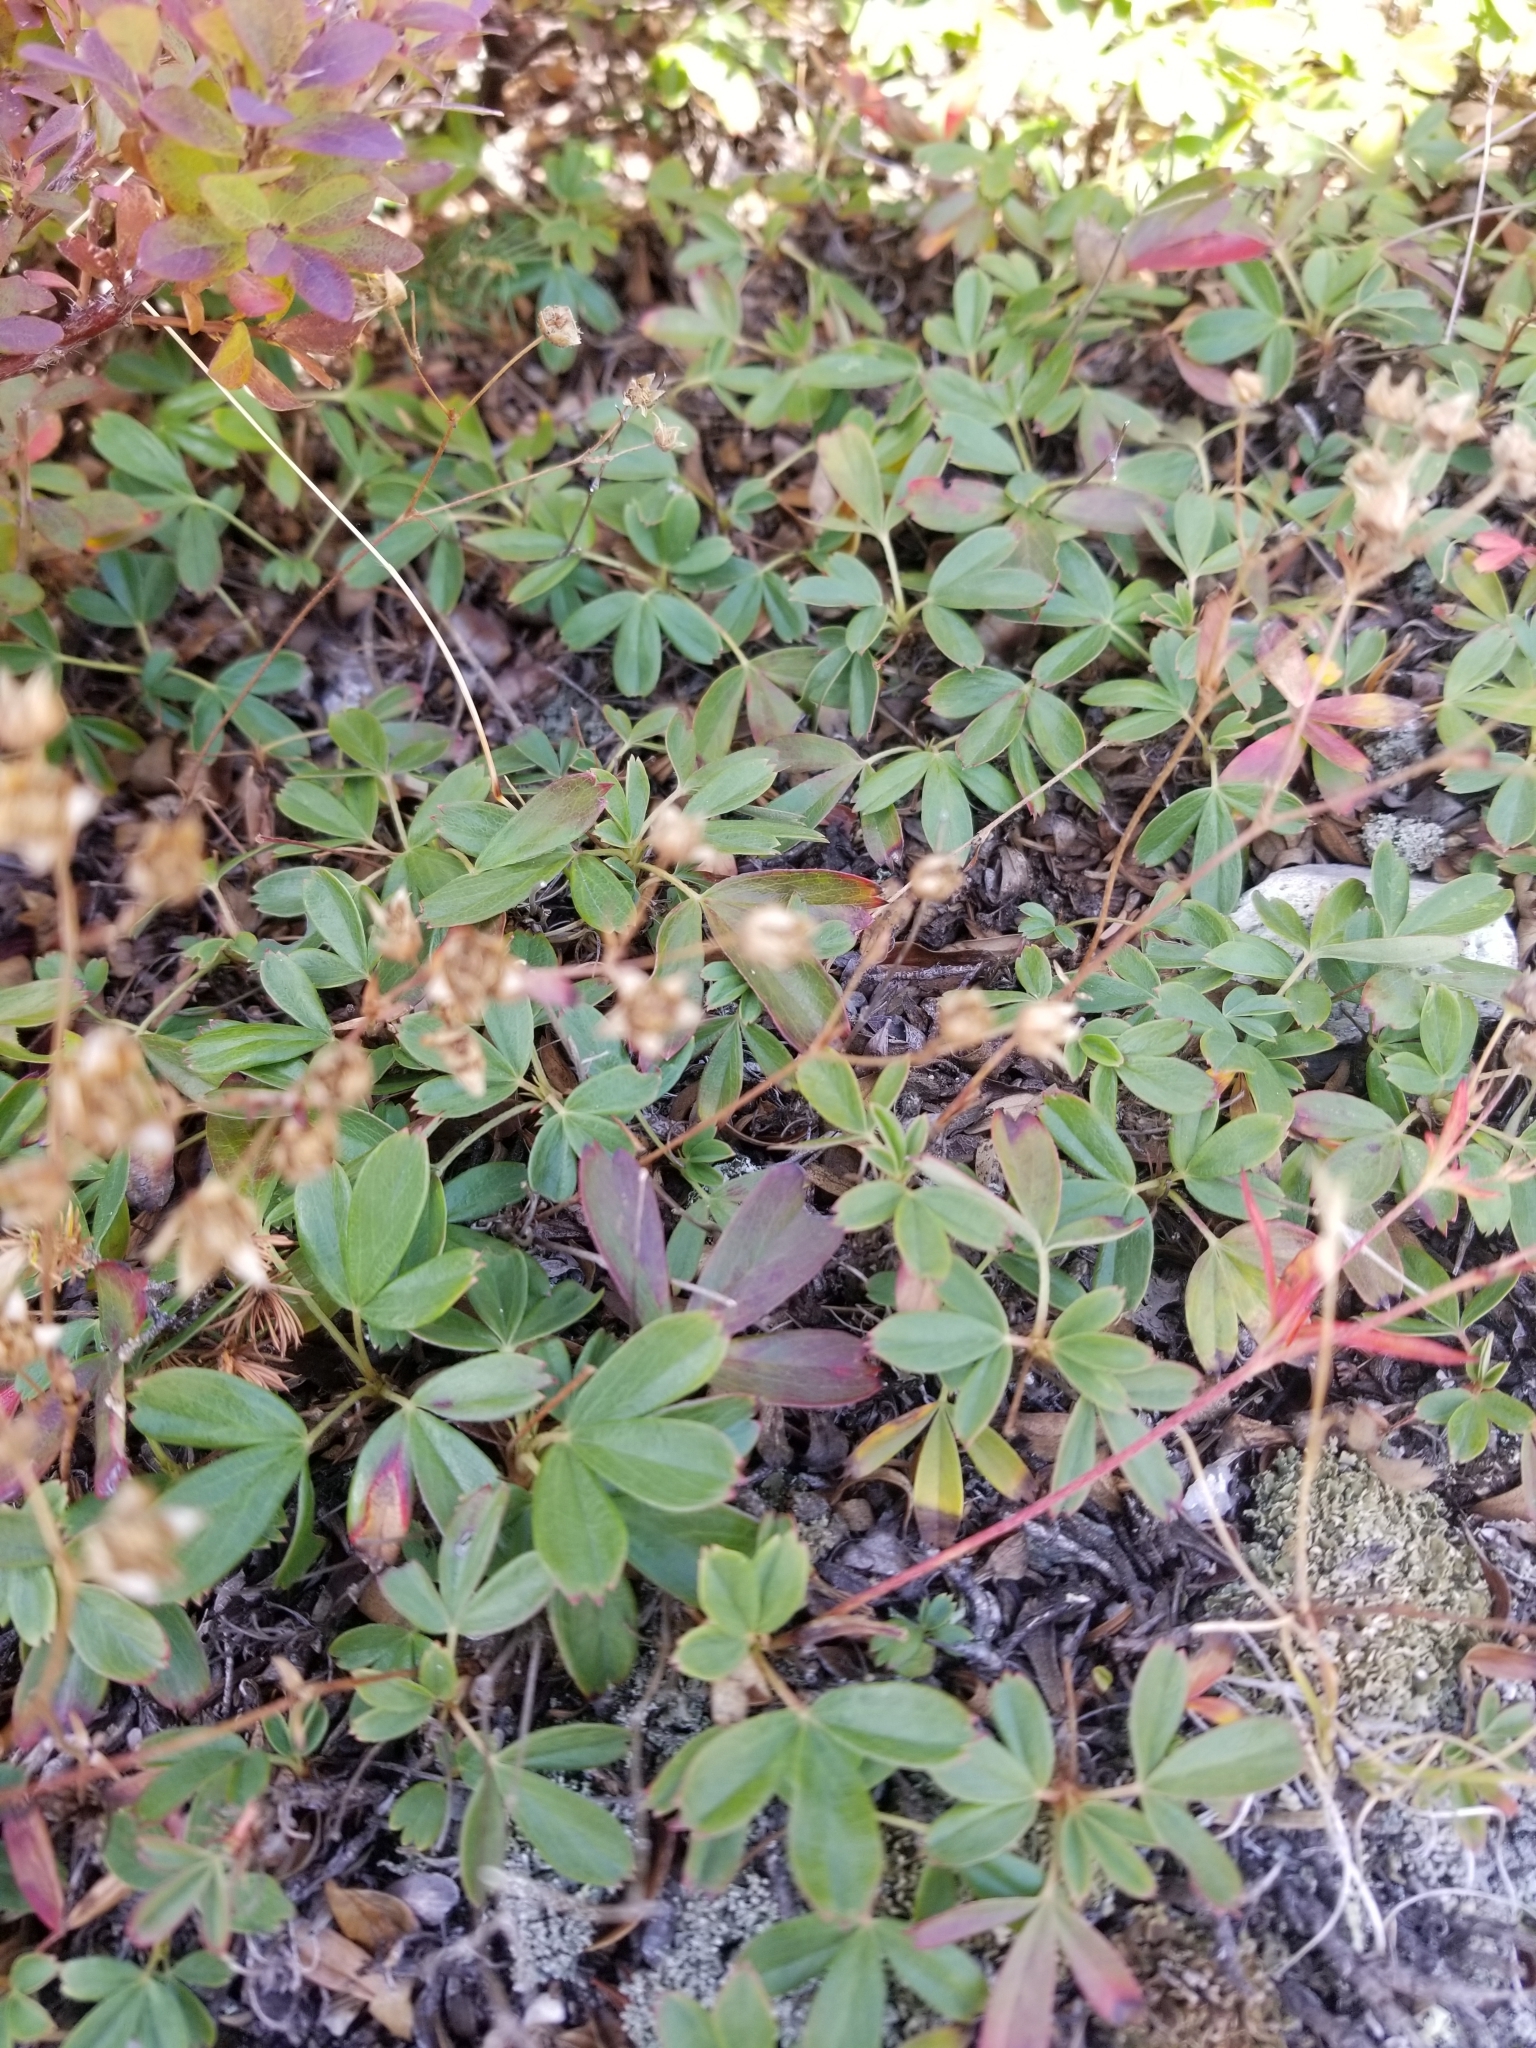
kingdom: Plantae
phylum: Tracheophyta
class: Magnoliopsida
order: Rosales
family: Rosaceae
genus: Sibbaldia
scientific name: Sibbaldia tridentata
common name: Three-toothed cinquefoil
